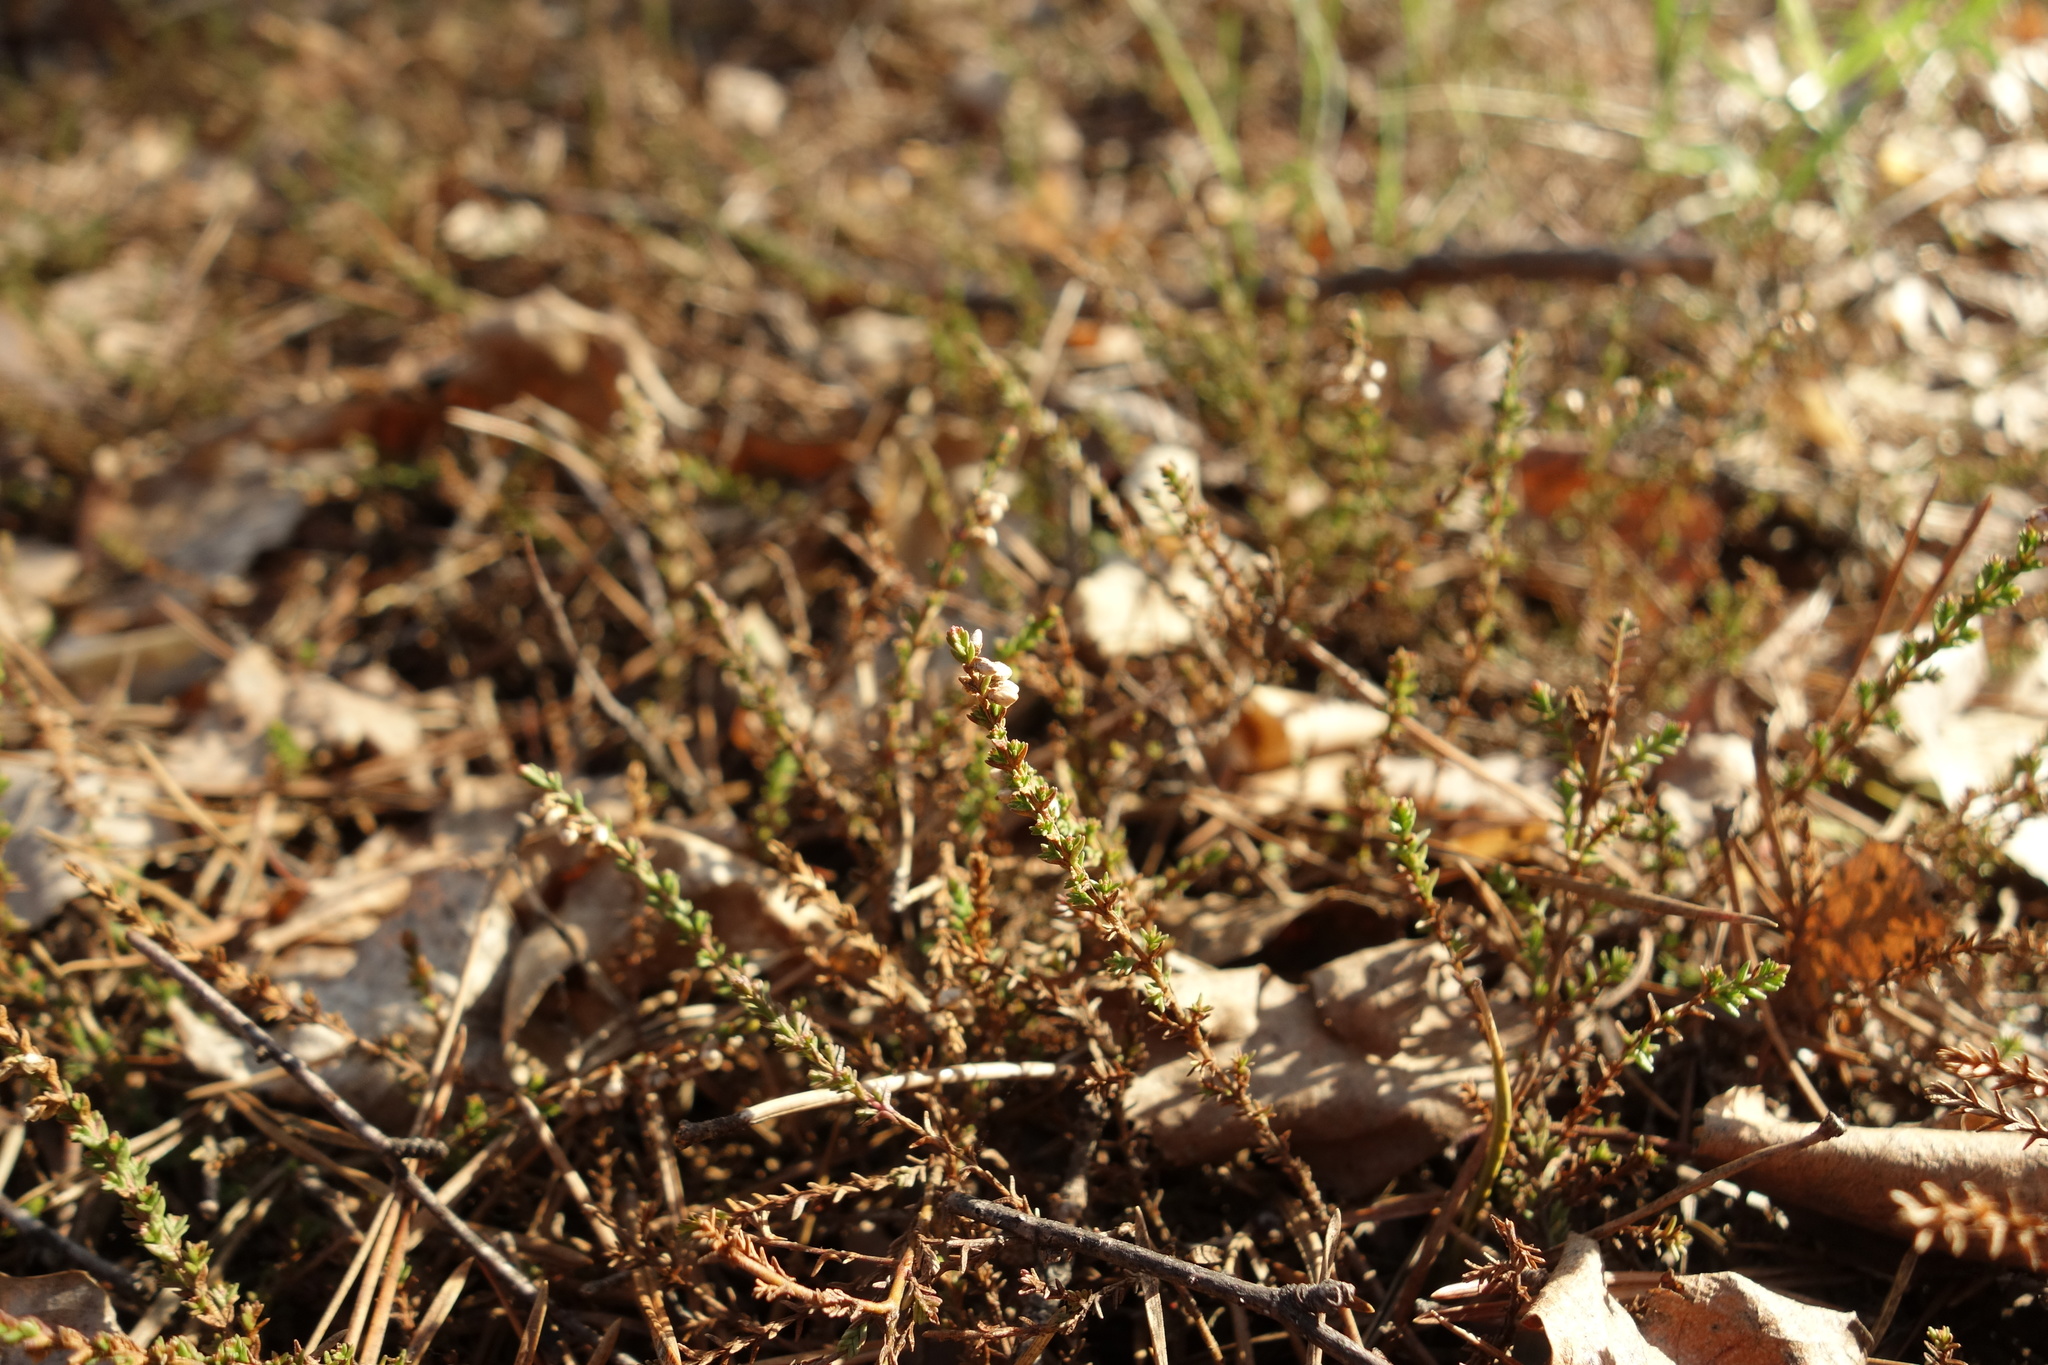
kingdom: Plantae
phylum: Tracheophyta
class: Magnoliopsida
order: Ericales
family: Ericaceae
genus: Calluna
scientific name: Calluna vulgaris
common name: Heather
